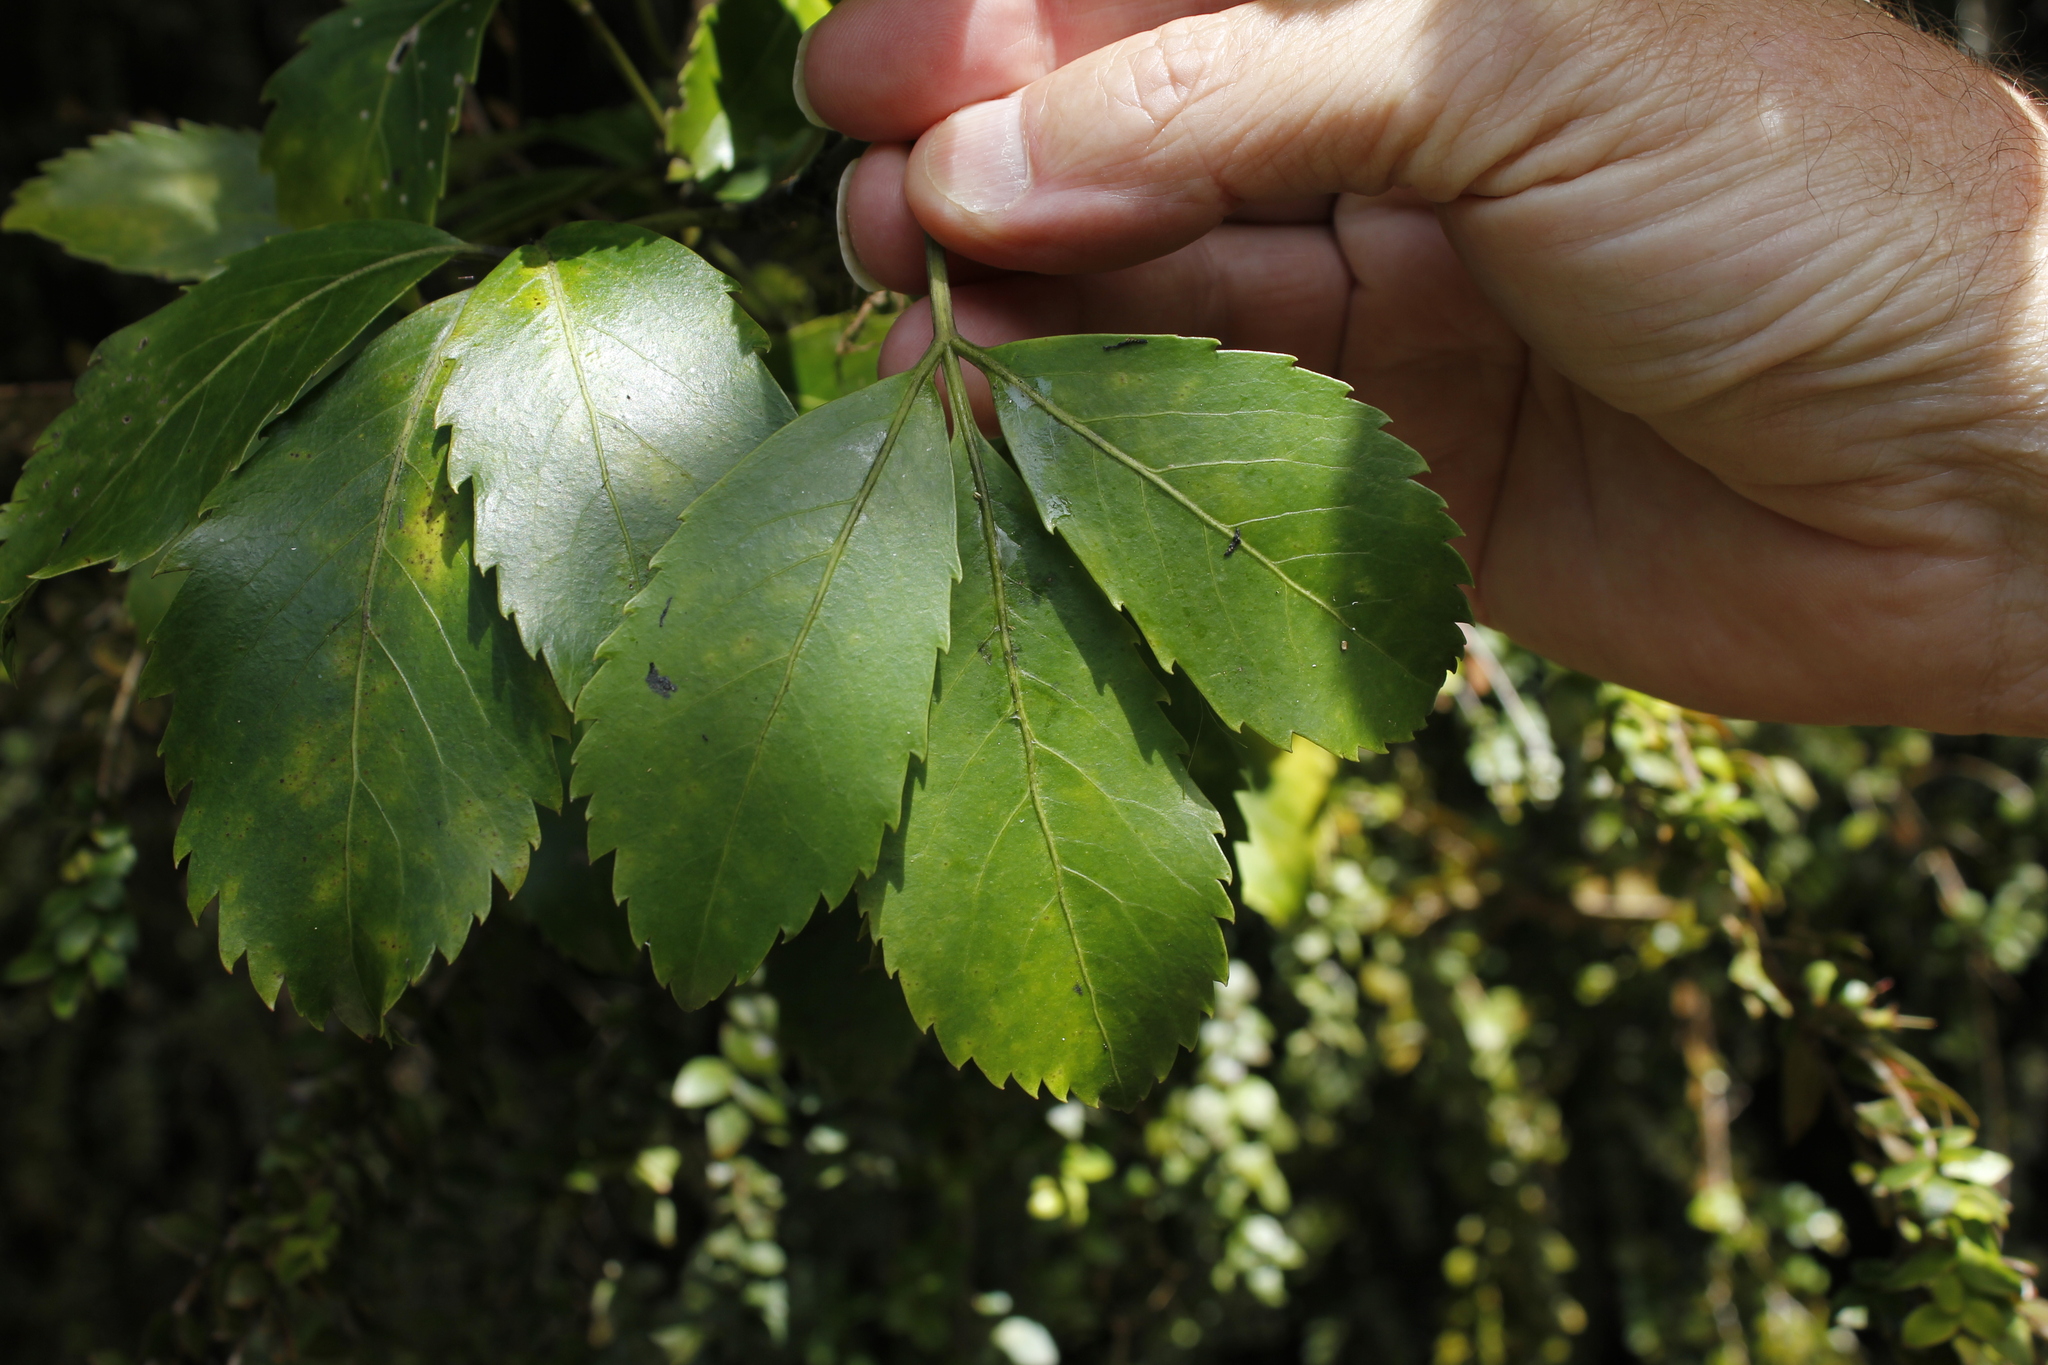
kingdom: Plantae
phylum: Tracheophyta
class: Magnoliopsida
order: Apiales
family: Araliaceae
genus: Neopanax
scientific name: Neopanax macintyrei
